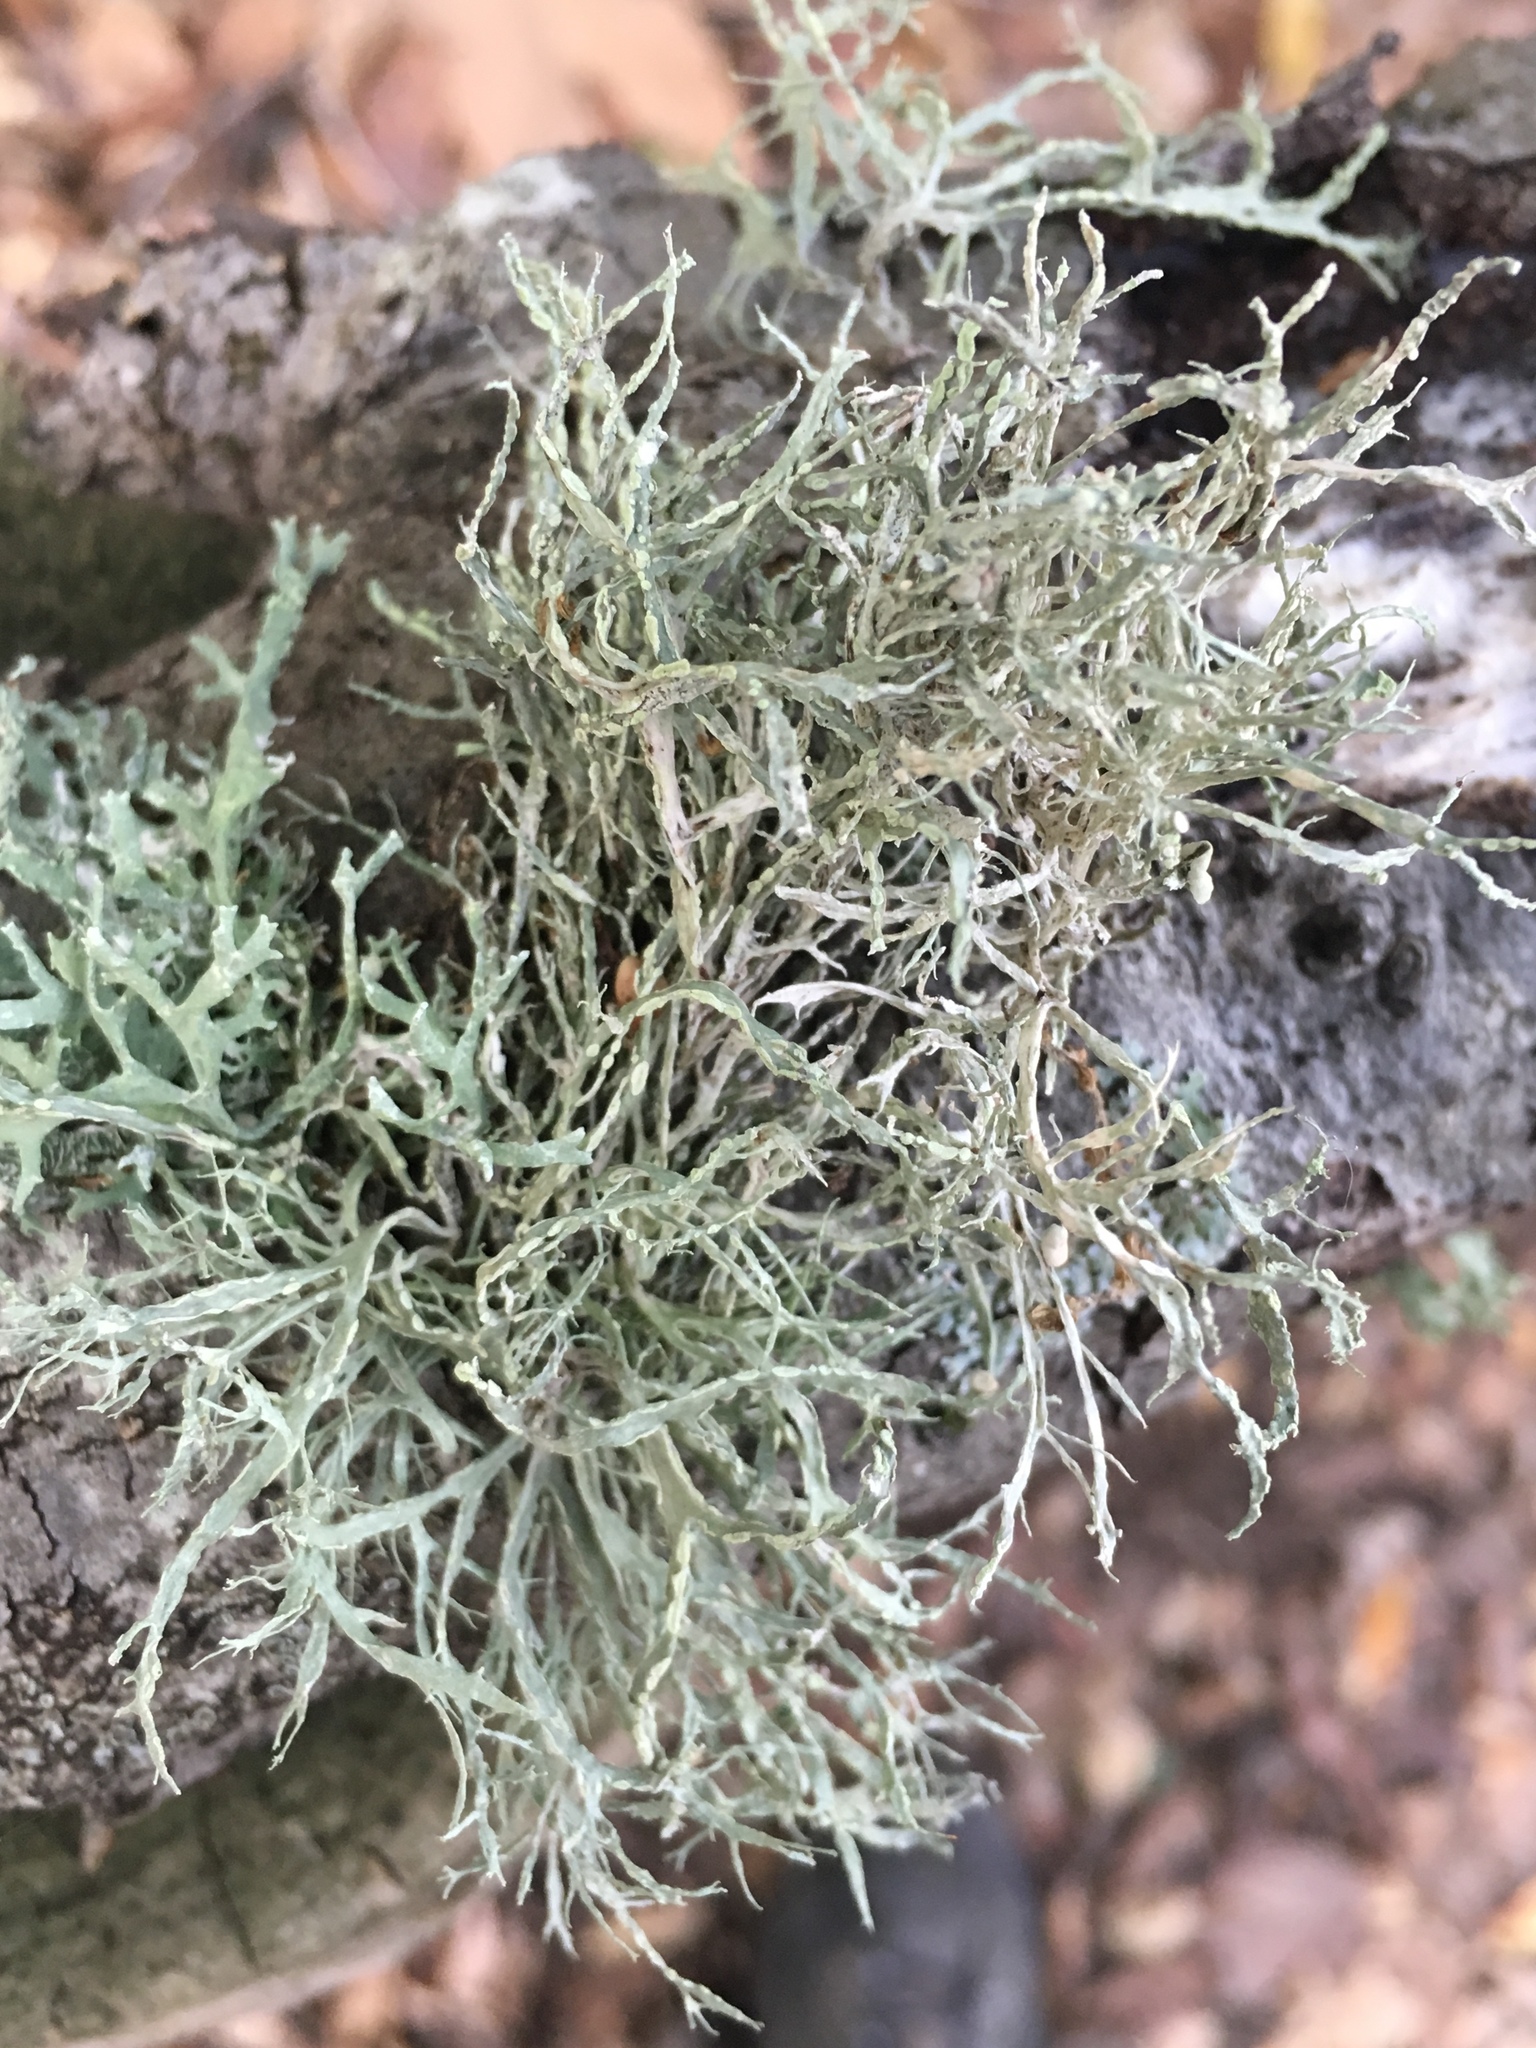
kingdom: Fungi
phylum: Ascomycota
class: Lecanoromycetes
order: Lecanorales
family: Ramalinaceae
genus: Ramalina
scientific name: Ramalina farinacea
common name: Farinose cartilage lichen
